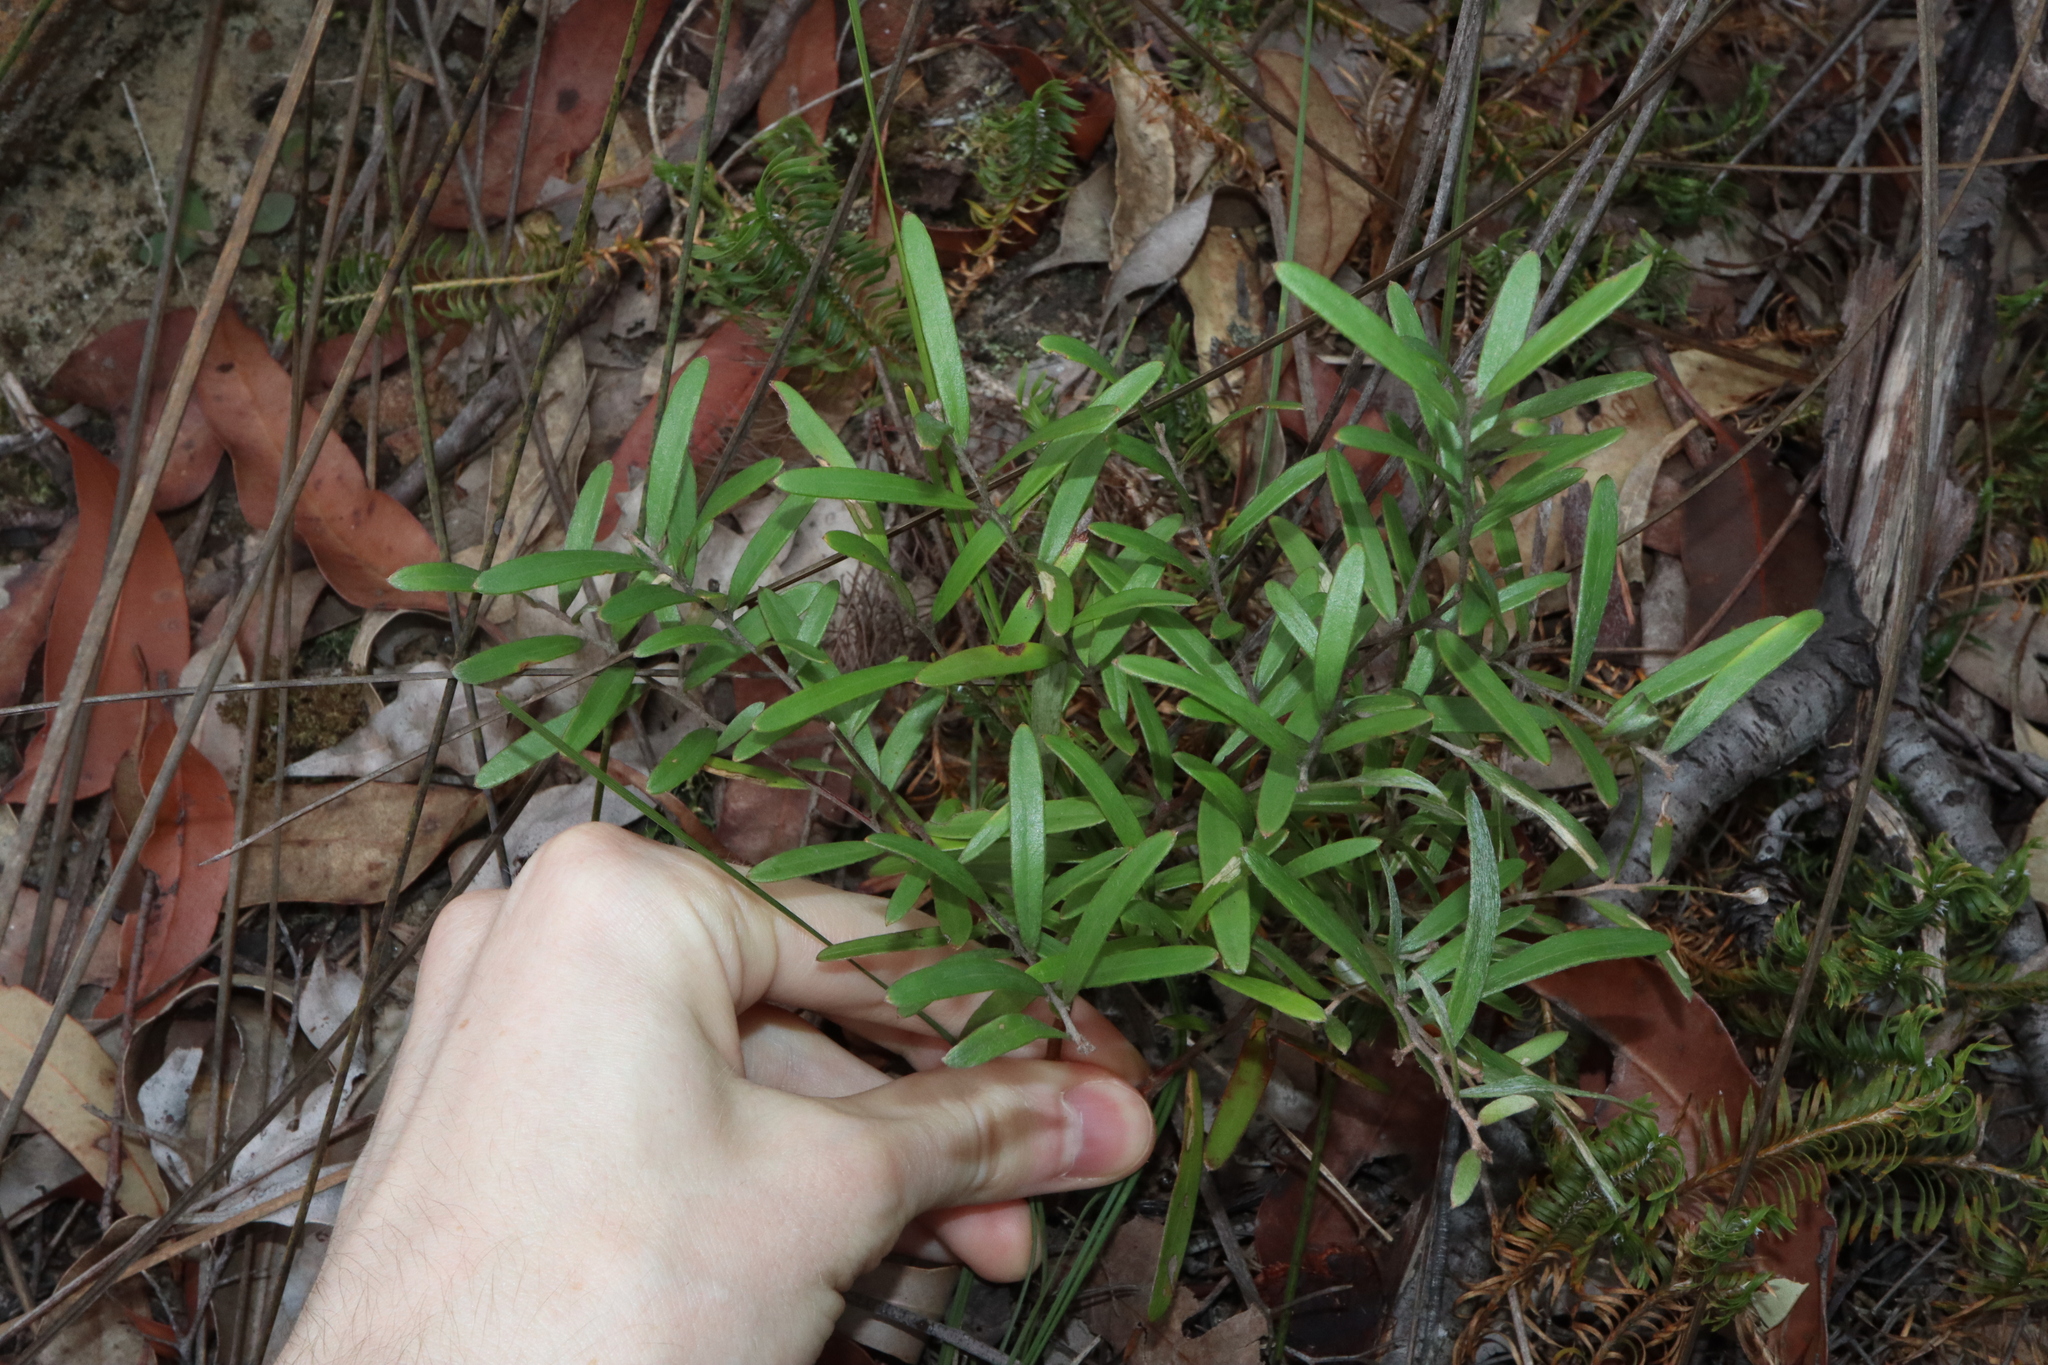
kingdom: Plantae
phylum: Tracheophyta
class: Magnoliopsida
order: Proteales
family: Proteaceae
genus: Grevillea
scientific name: Grevillea diffusa
